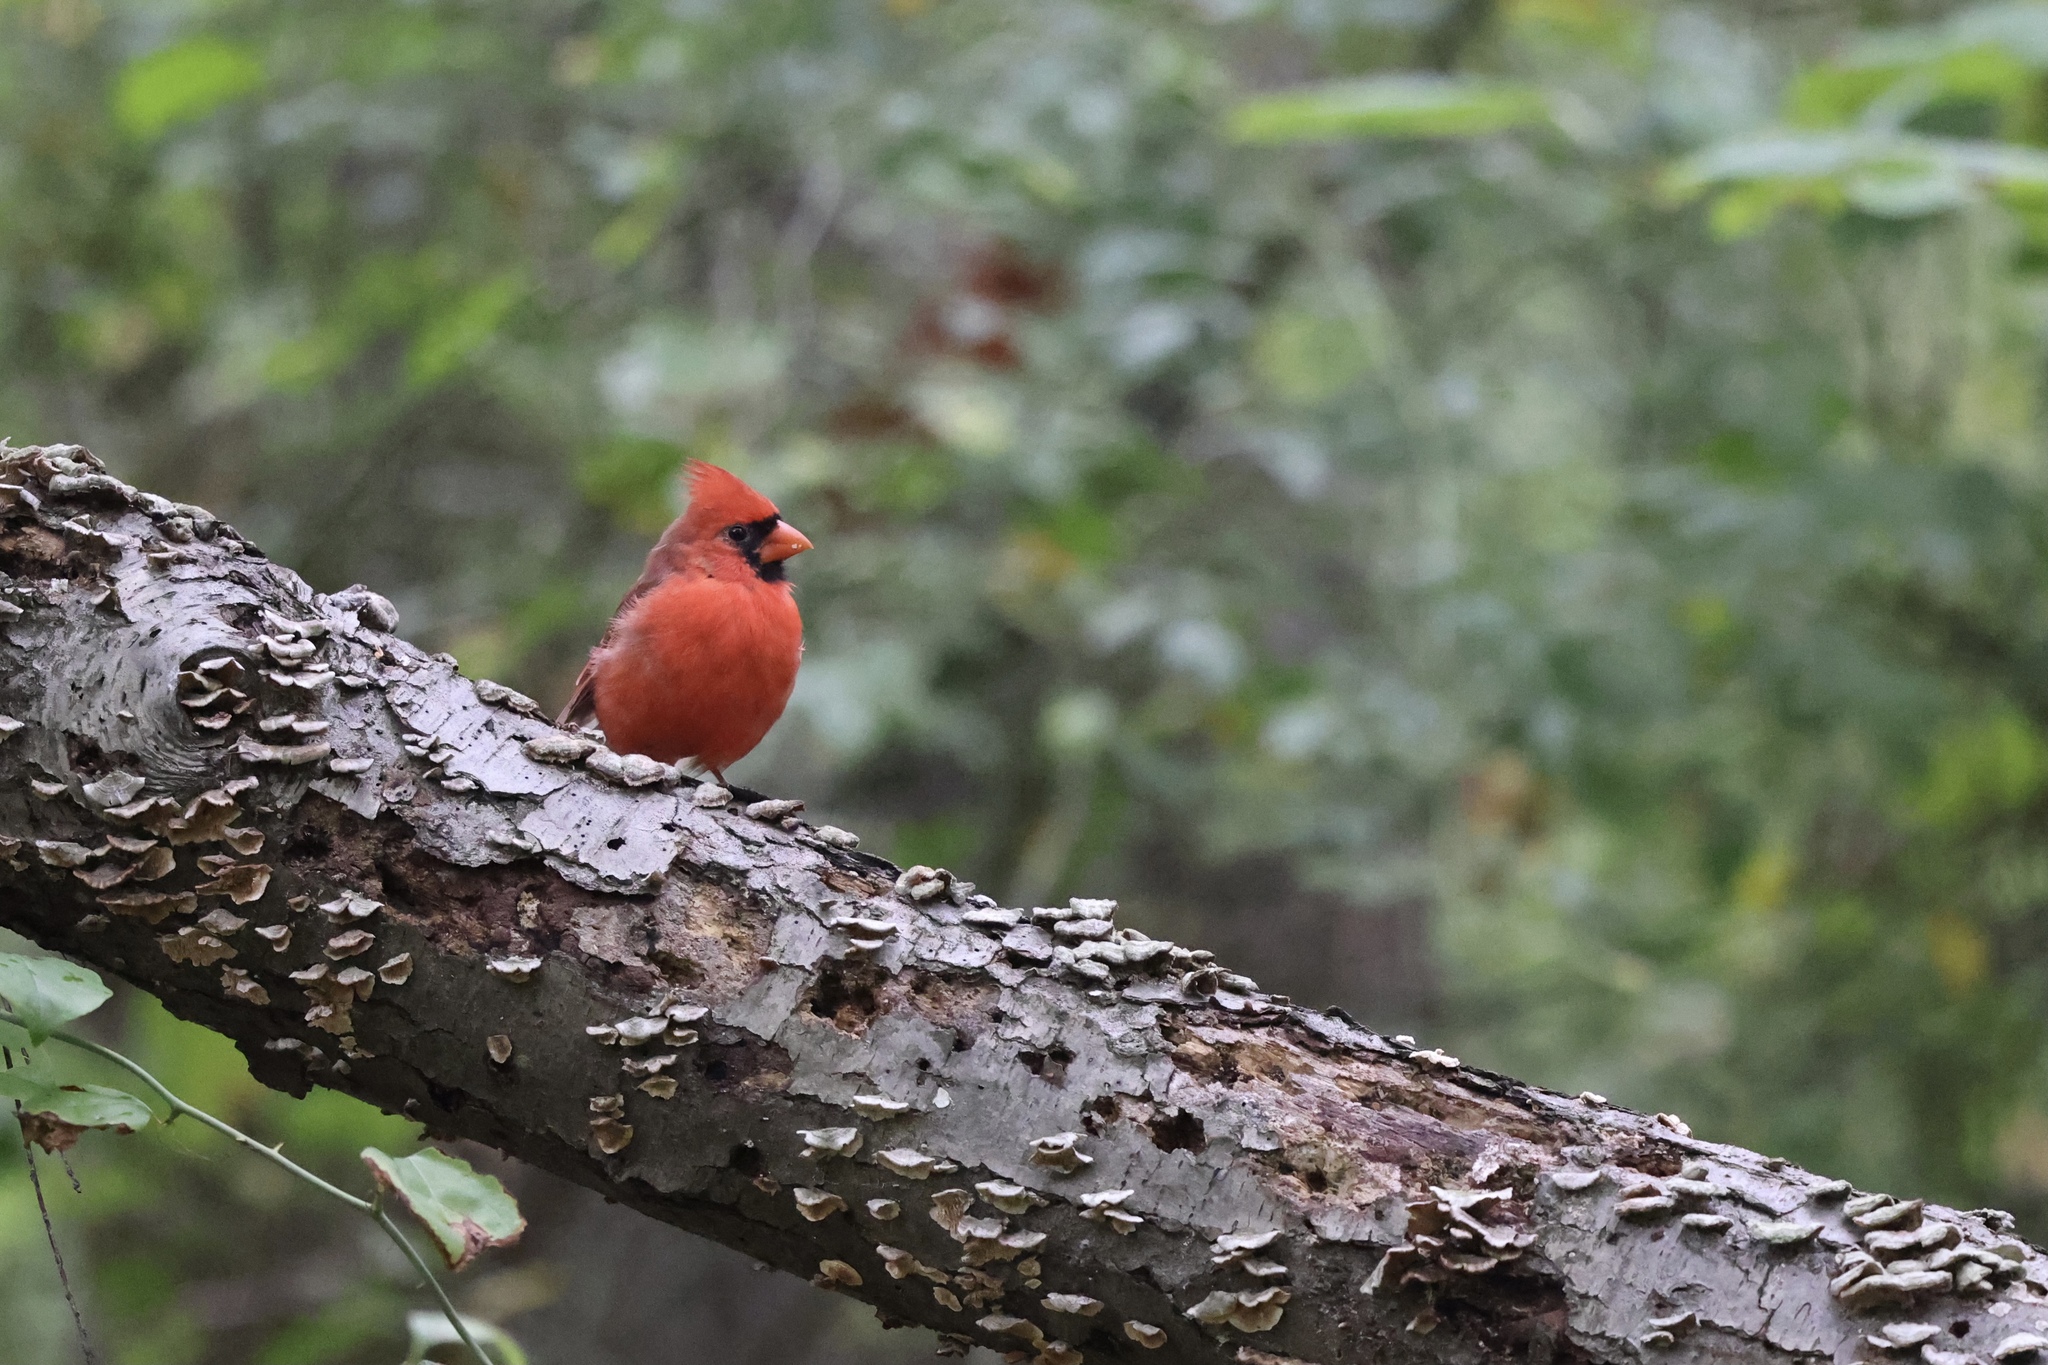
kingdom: Animalia
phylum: Chordata
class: Aves
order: Passeriformes
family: Cardinalidae
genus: Cardinalis
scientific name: Cardinalis cardinalis
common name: Northern cardinal
